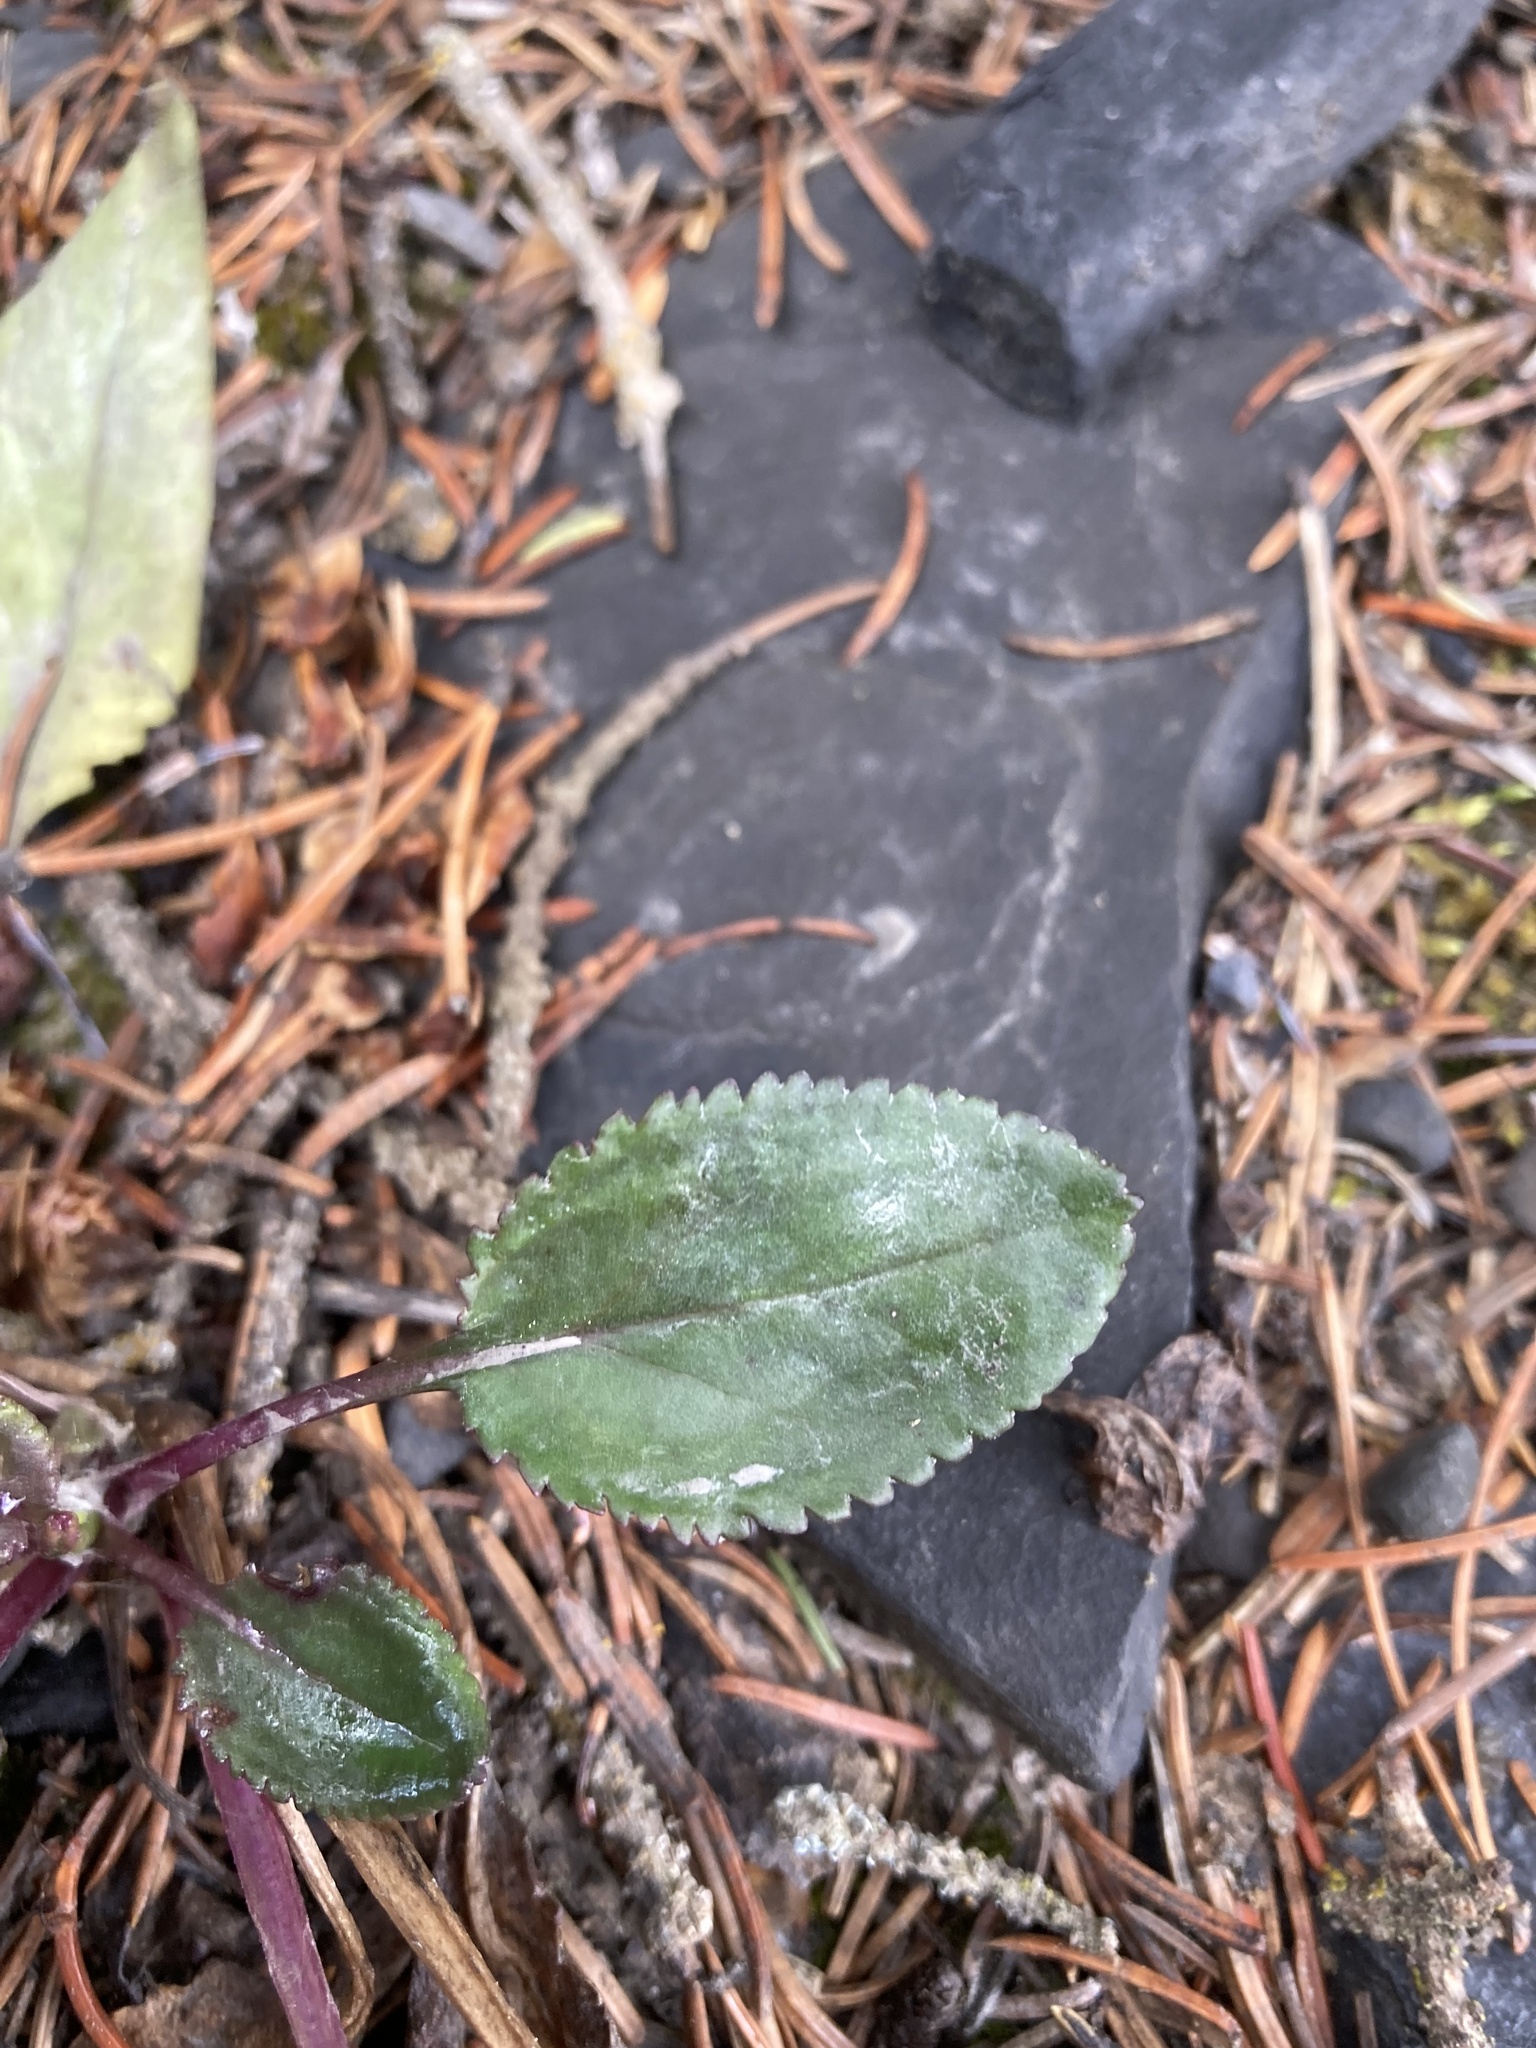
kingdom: Plantae
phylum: Tracheophyta
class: Magnoliopsida
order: Asterales
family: Asteraceae
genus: Packera
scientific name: Packera paupercula
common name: Balsam groundsel
